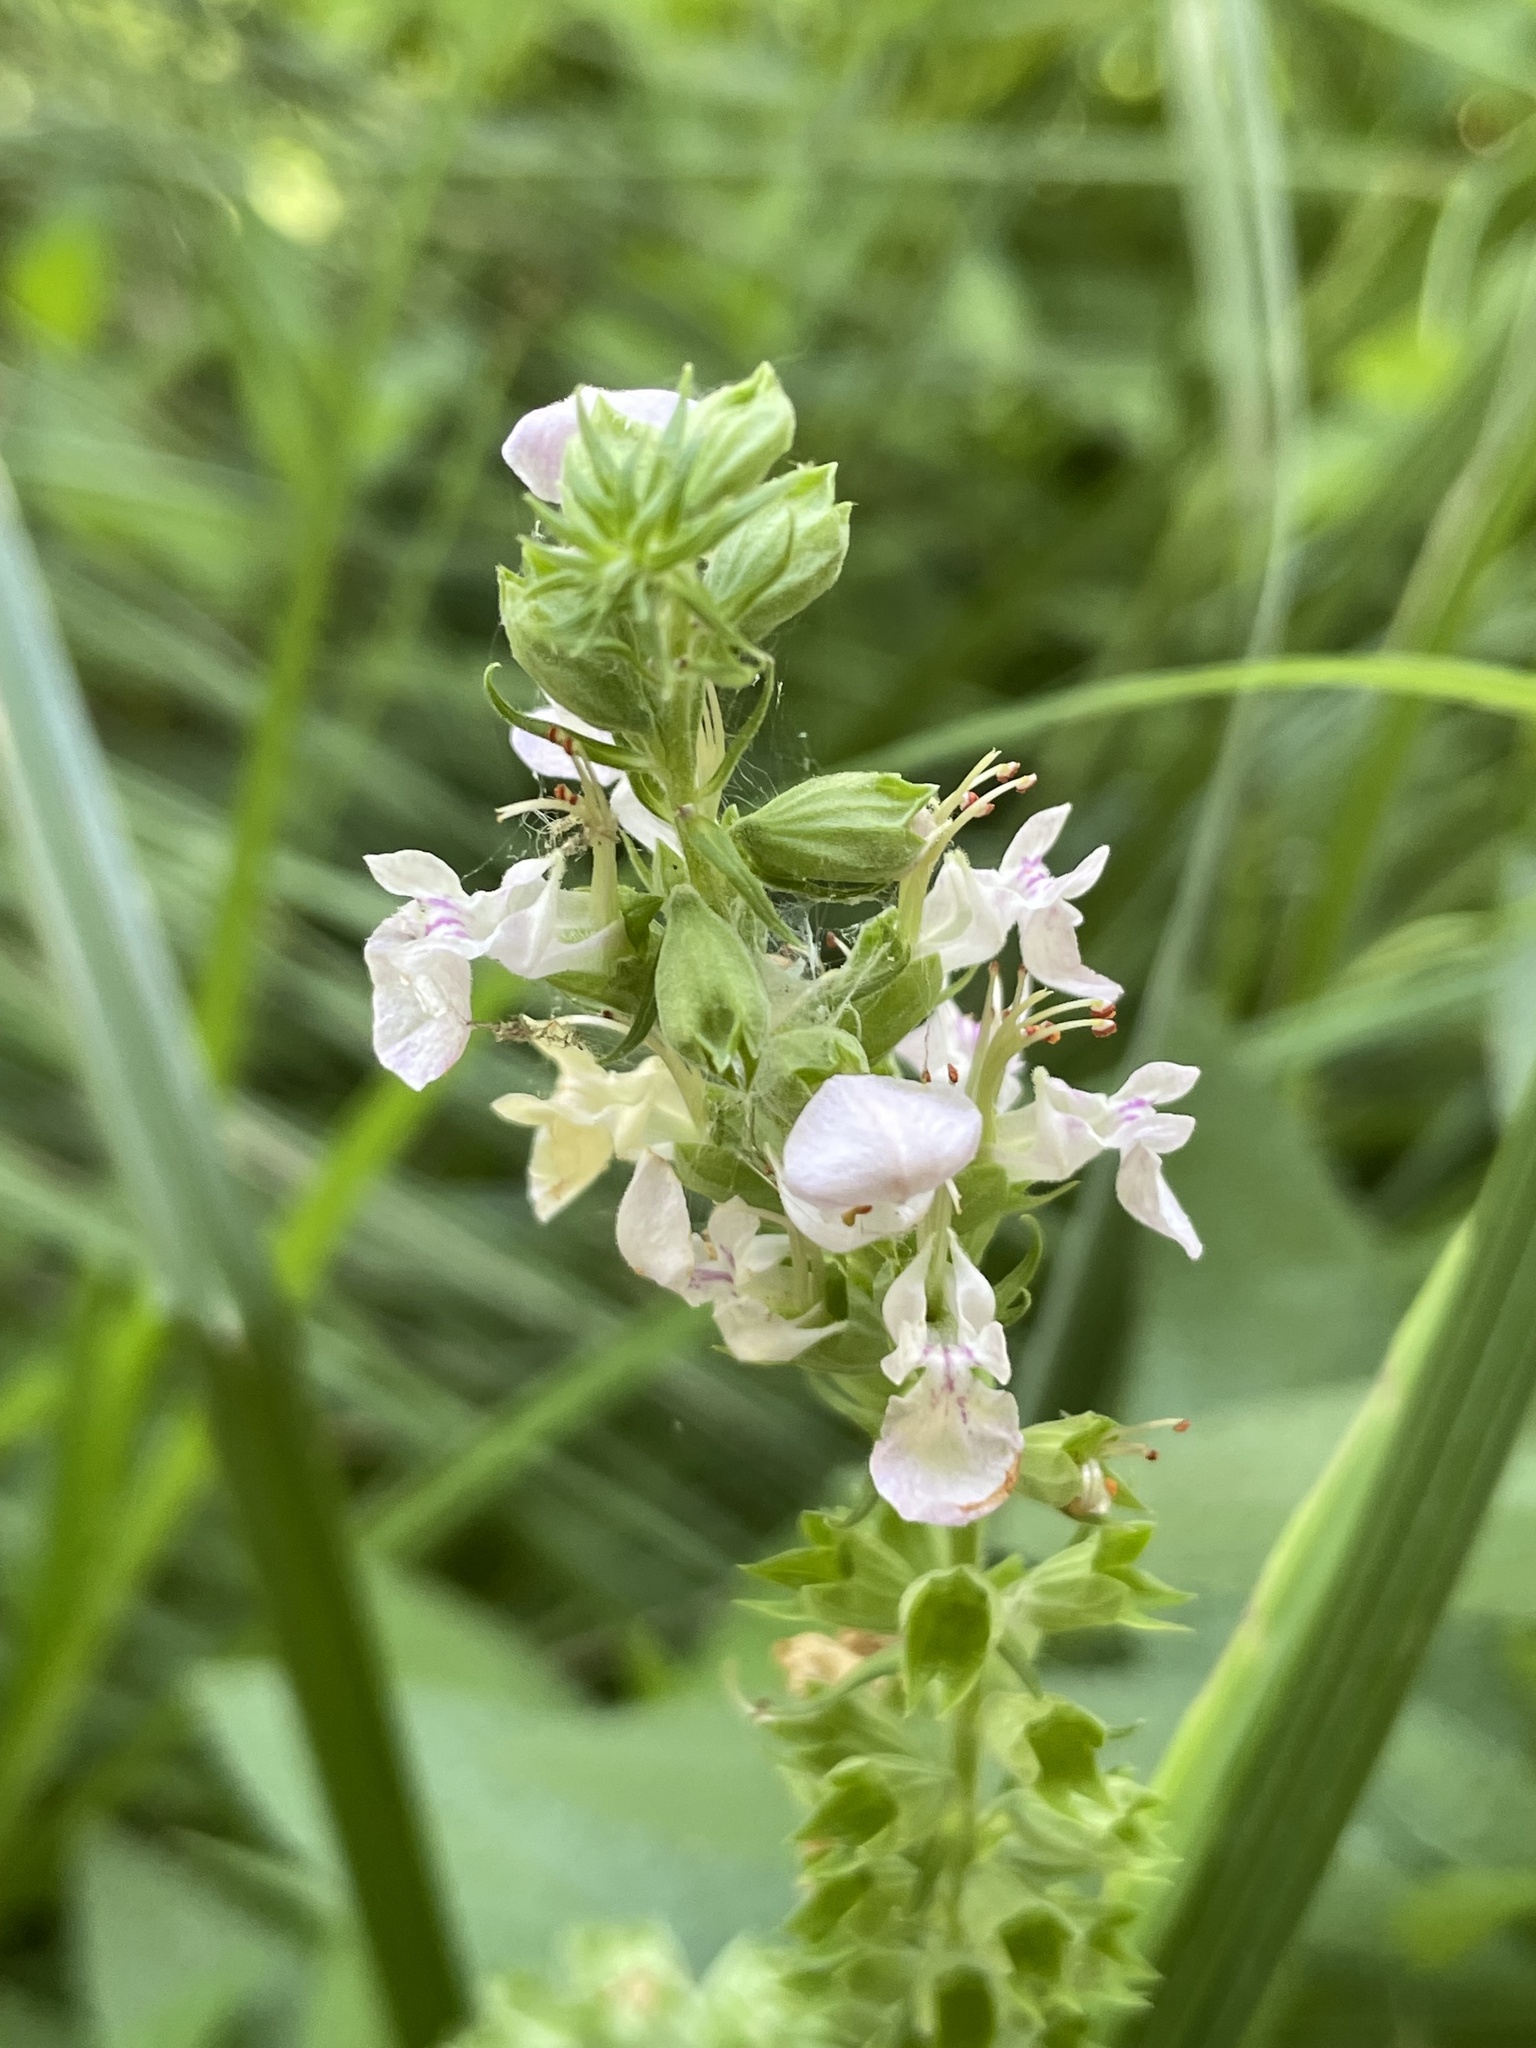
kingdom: Plantae
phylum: Tracheophyta
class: Magnoliopsida
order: Lamiales
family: Lamiaceae
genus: Teucrium
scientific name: Teucrium canadense
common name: American germander
